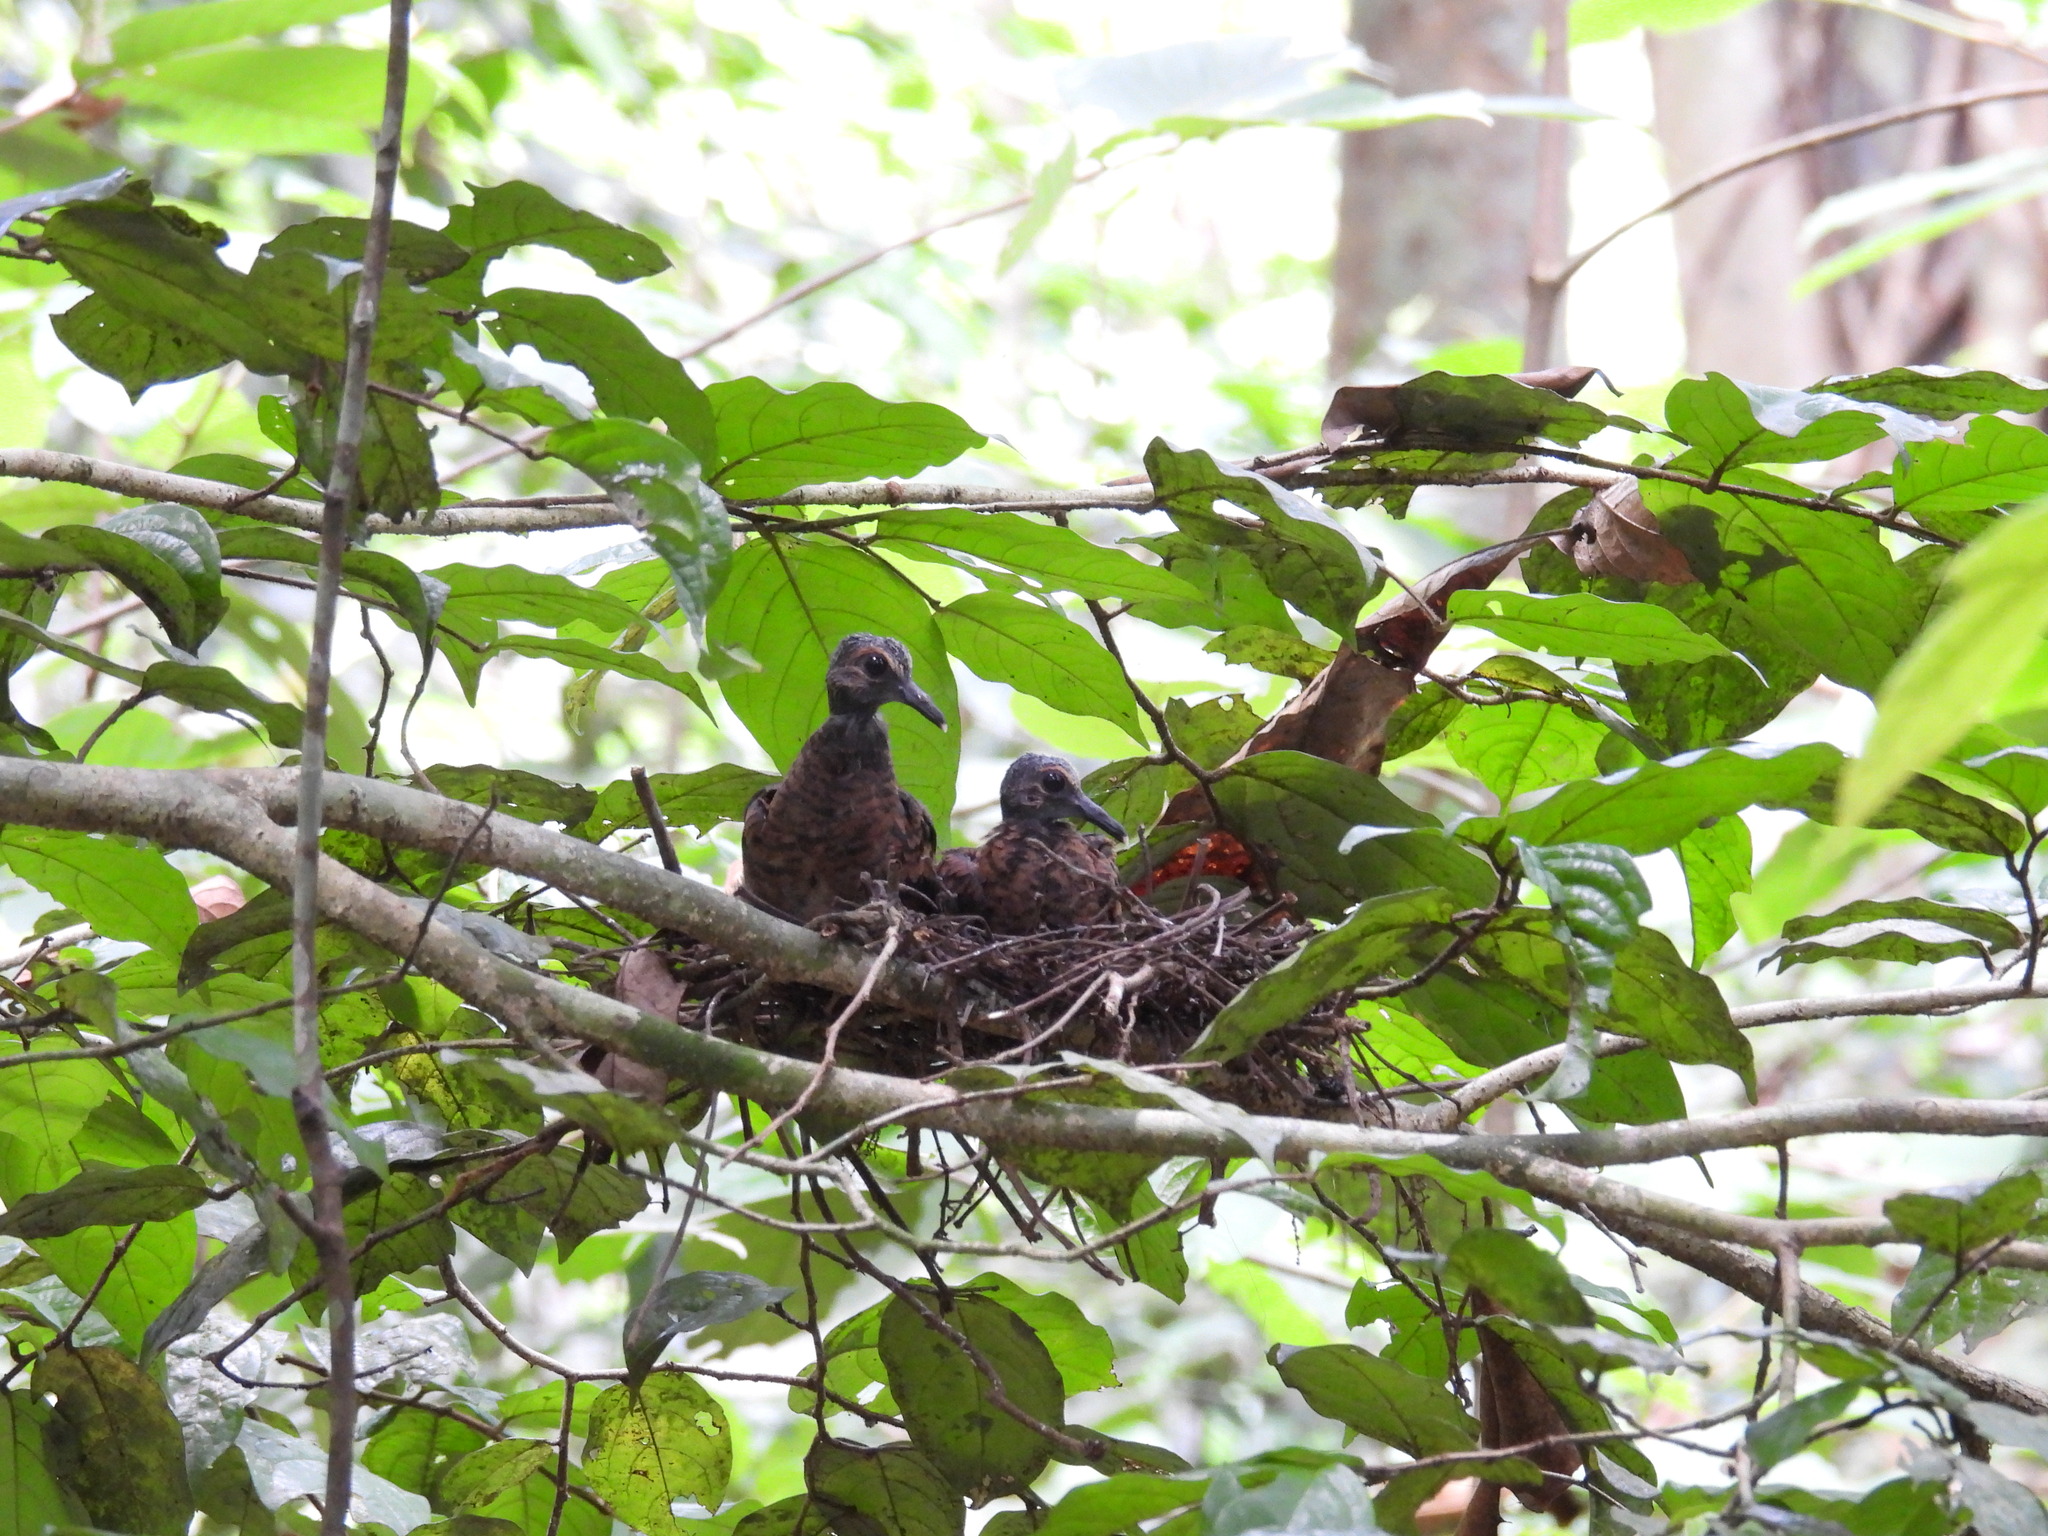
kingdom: Animalia
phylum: Chordata
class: Aves
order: Columbiformes
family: Columbidae
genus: Spilopelia
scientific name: Spilopelia chinensis
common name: Spotted dove
